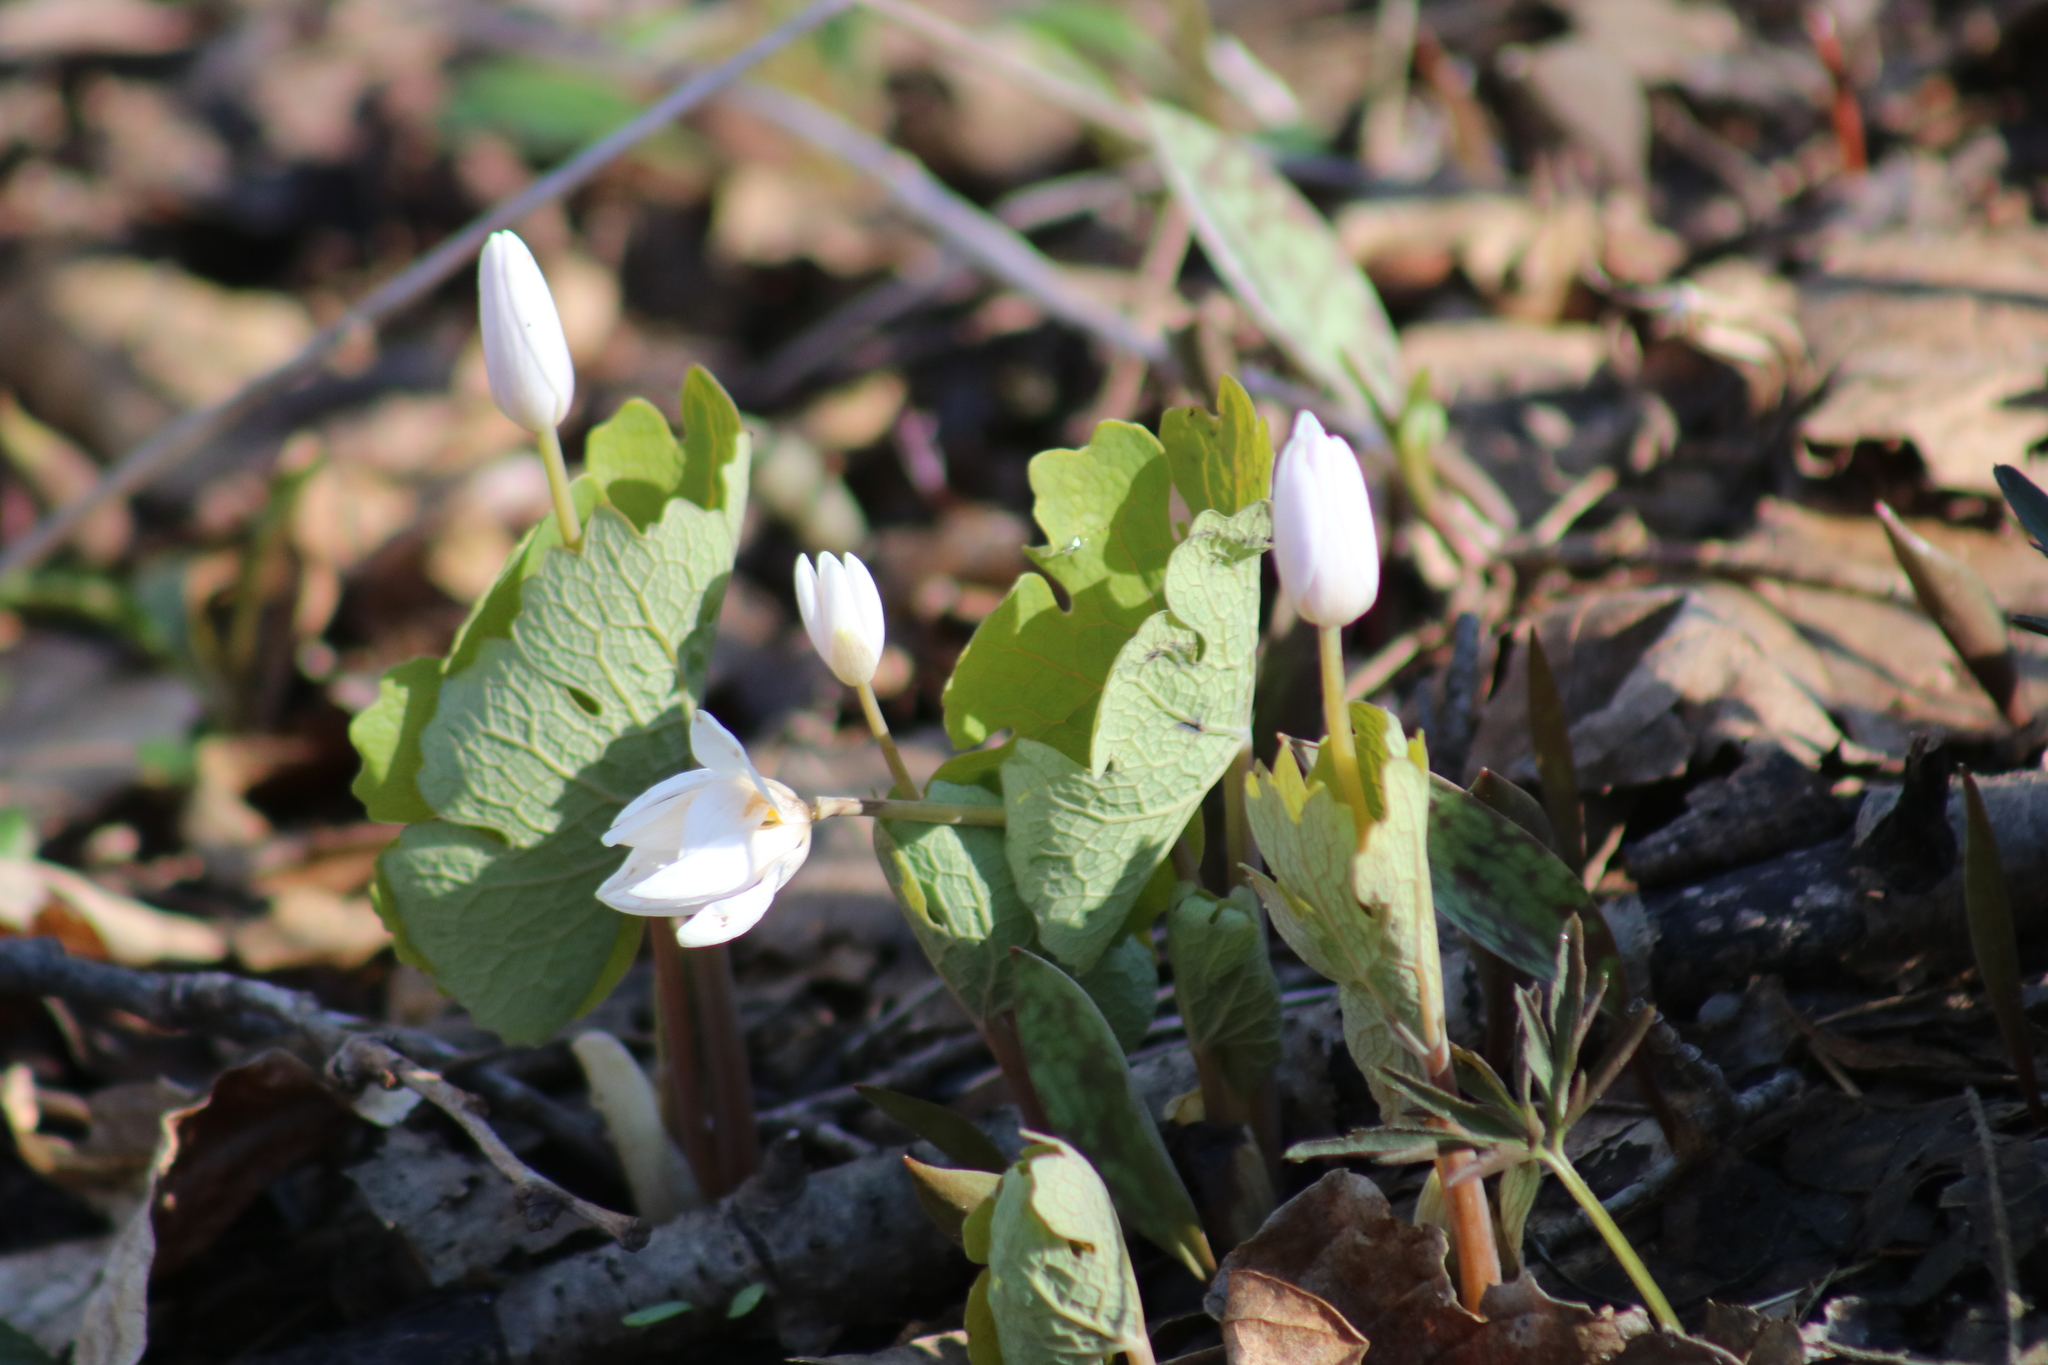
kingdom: Plantae
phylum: Tracheophyta
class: Magnoliopsida
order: Ranunculales
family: Papaveraceae
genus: Sanguinaria
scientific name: Sanguinaria canadensis
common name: Bloodroot
